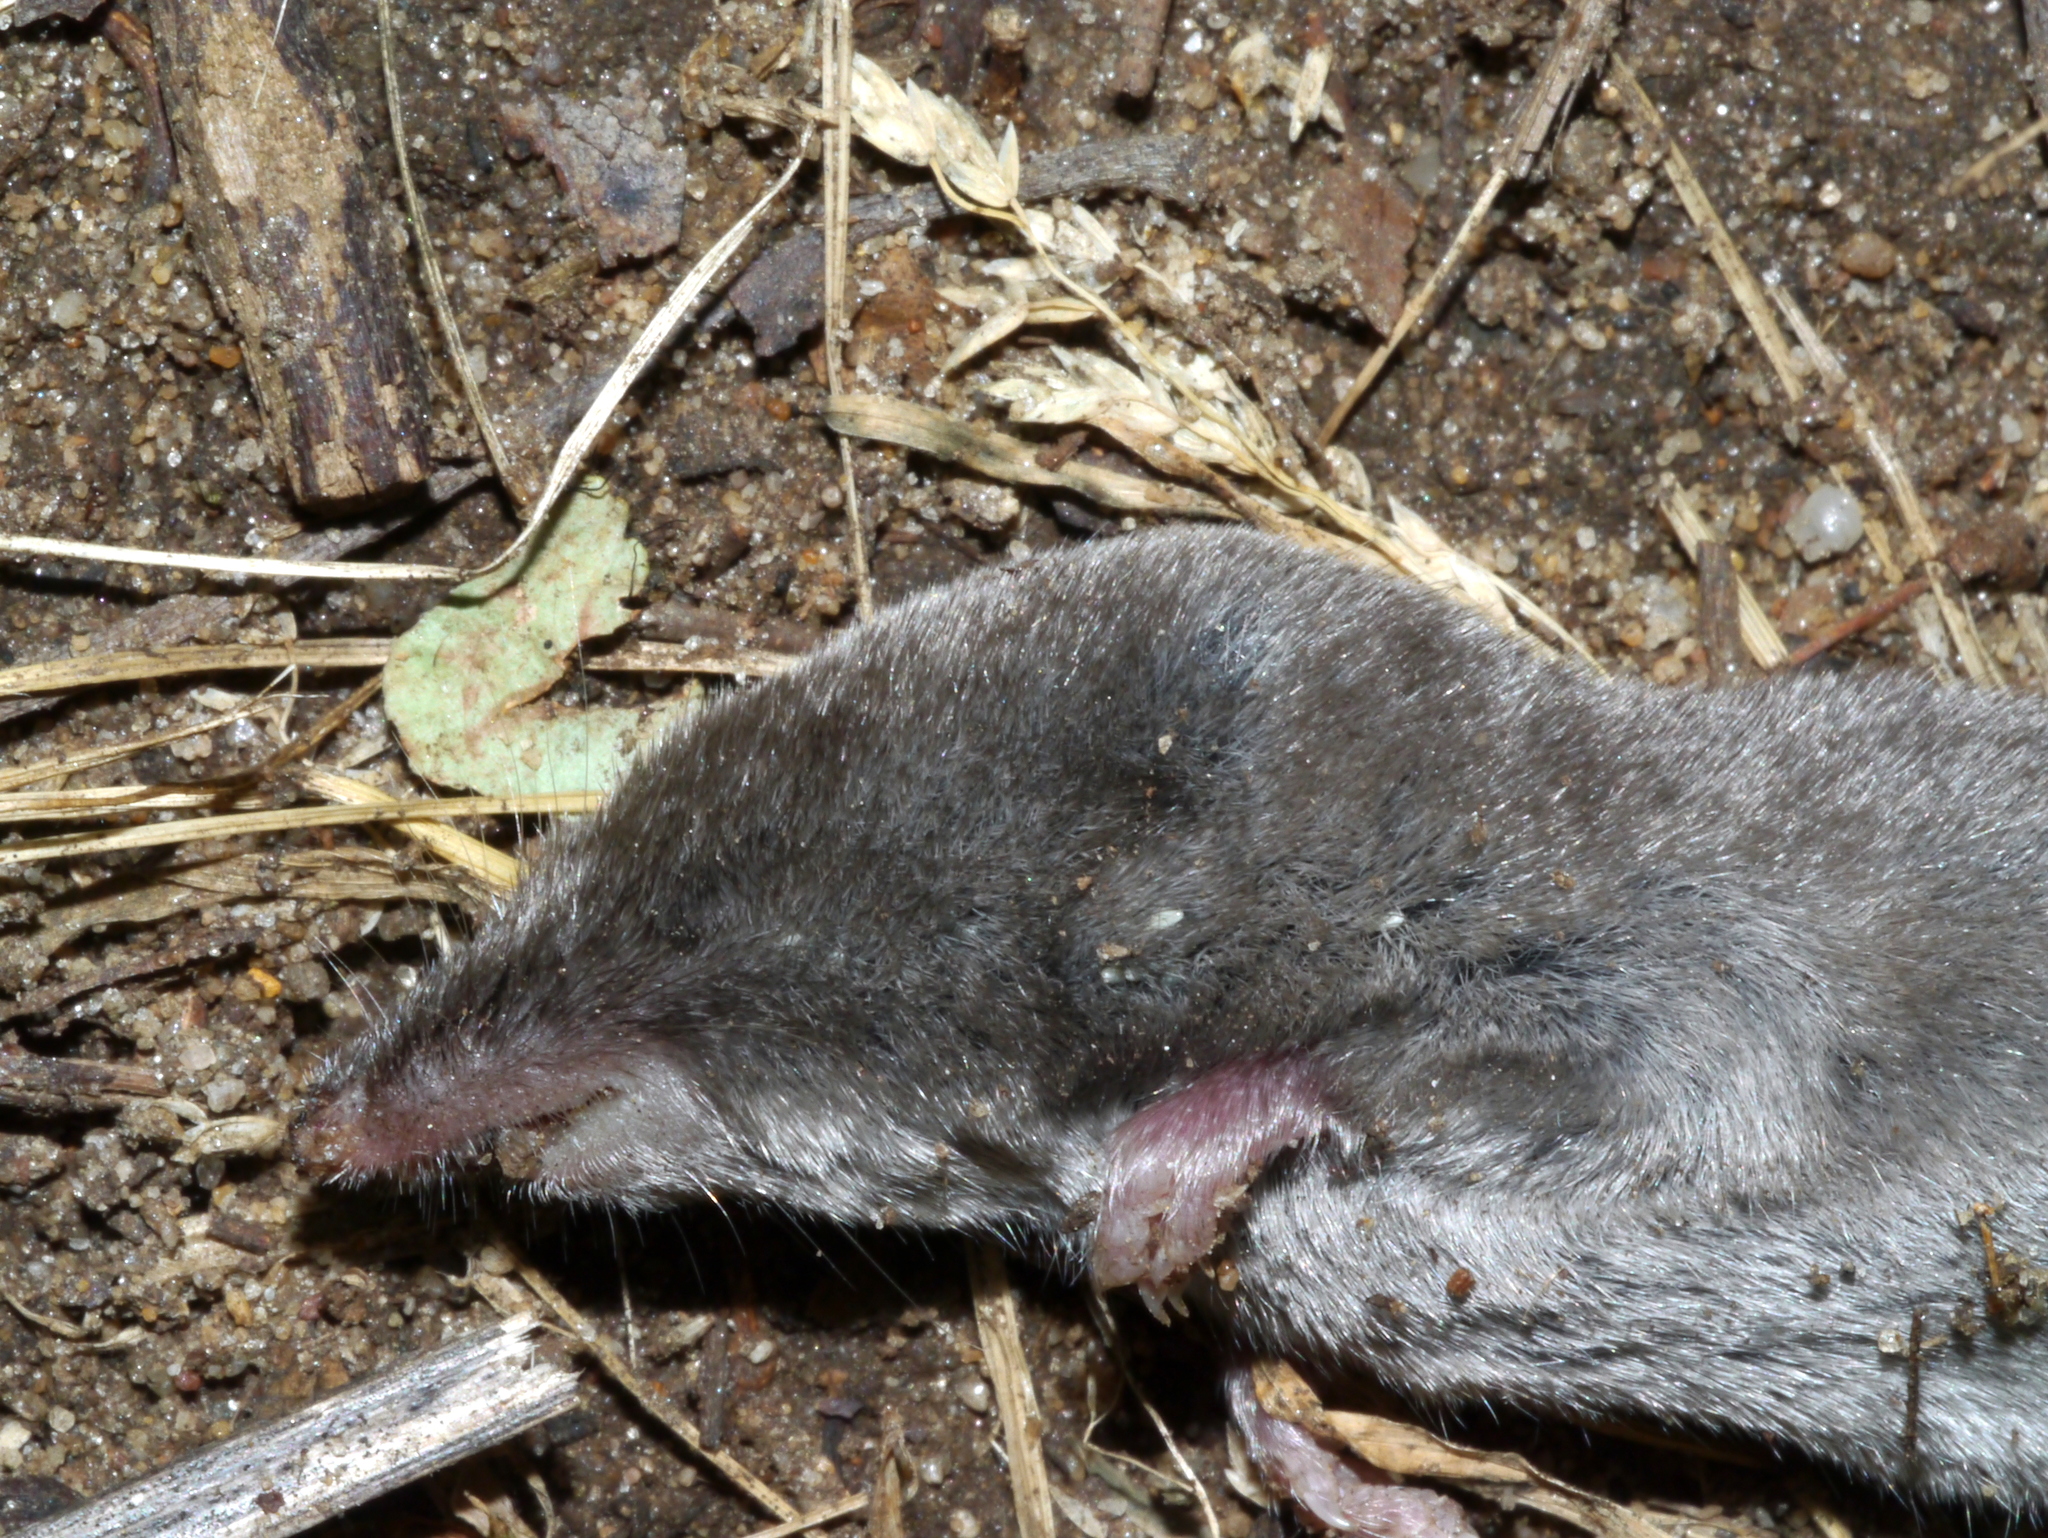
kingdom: Animalia
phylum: Chordata
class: Mammalia
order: Soricomorpha
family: Soricidae
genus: Blarina
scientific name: Blarina brevicauda
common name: Northern short-tailed shrew
